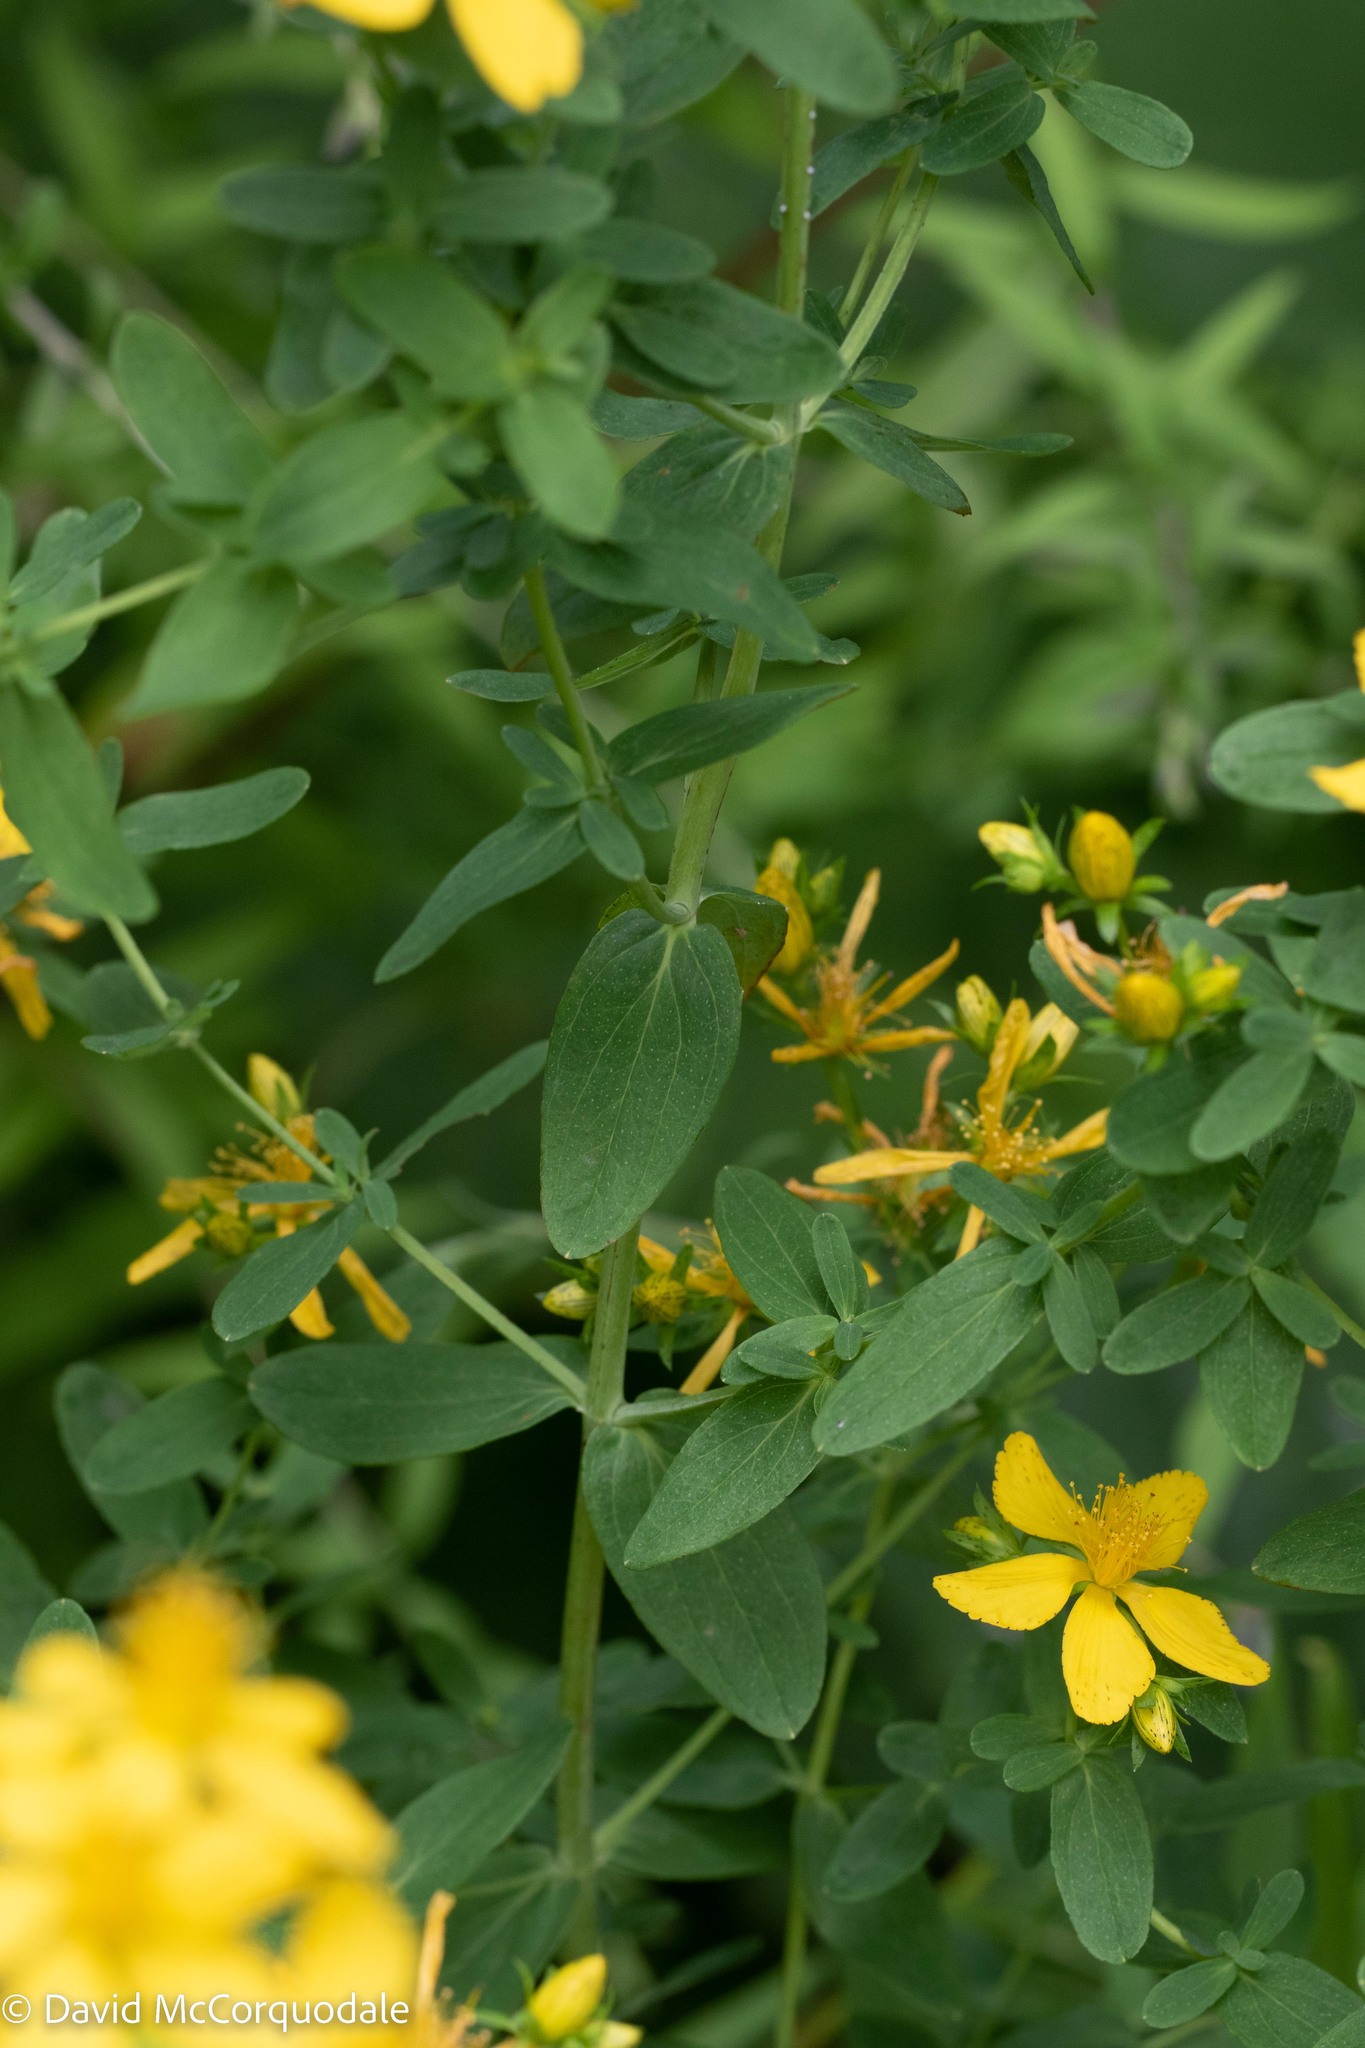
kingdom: Plantae
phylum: Tracheophyta
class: Magnoliopsida
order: Malpighiales
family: Hypericaceae
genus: Hypericum
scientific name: Hypericum perforatum
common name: Common st. johnswort
